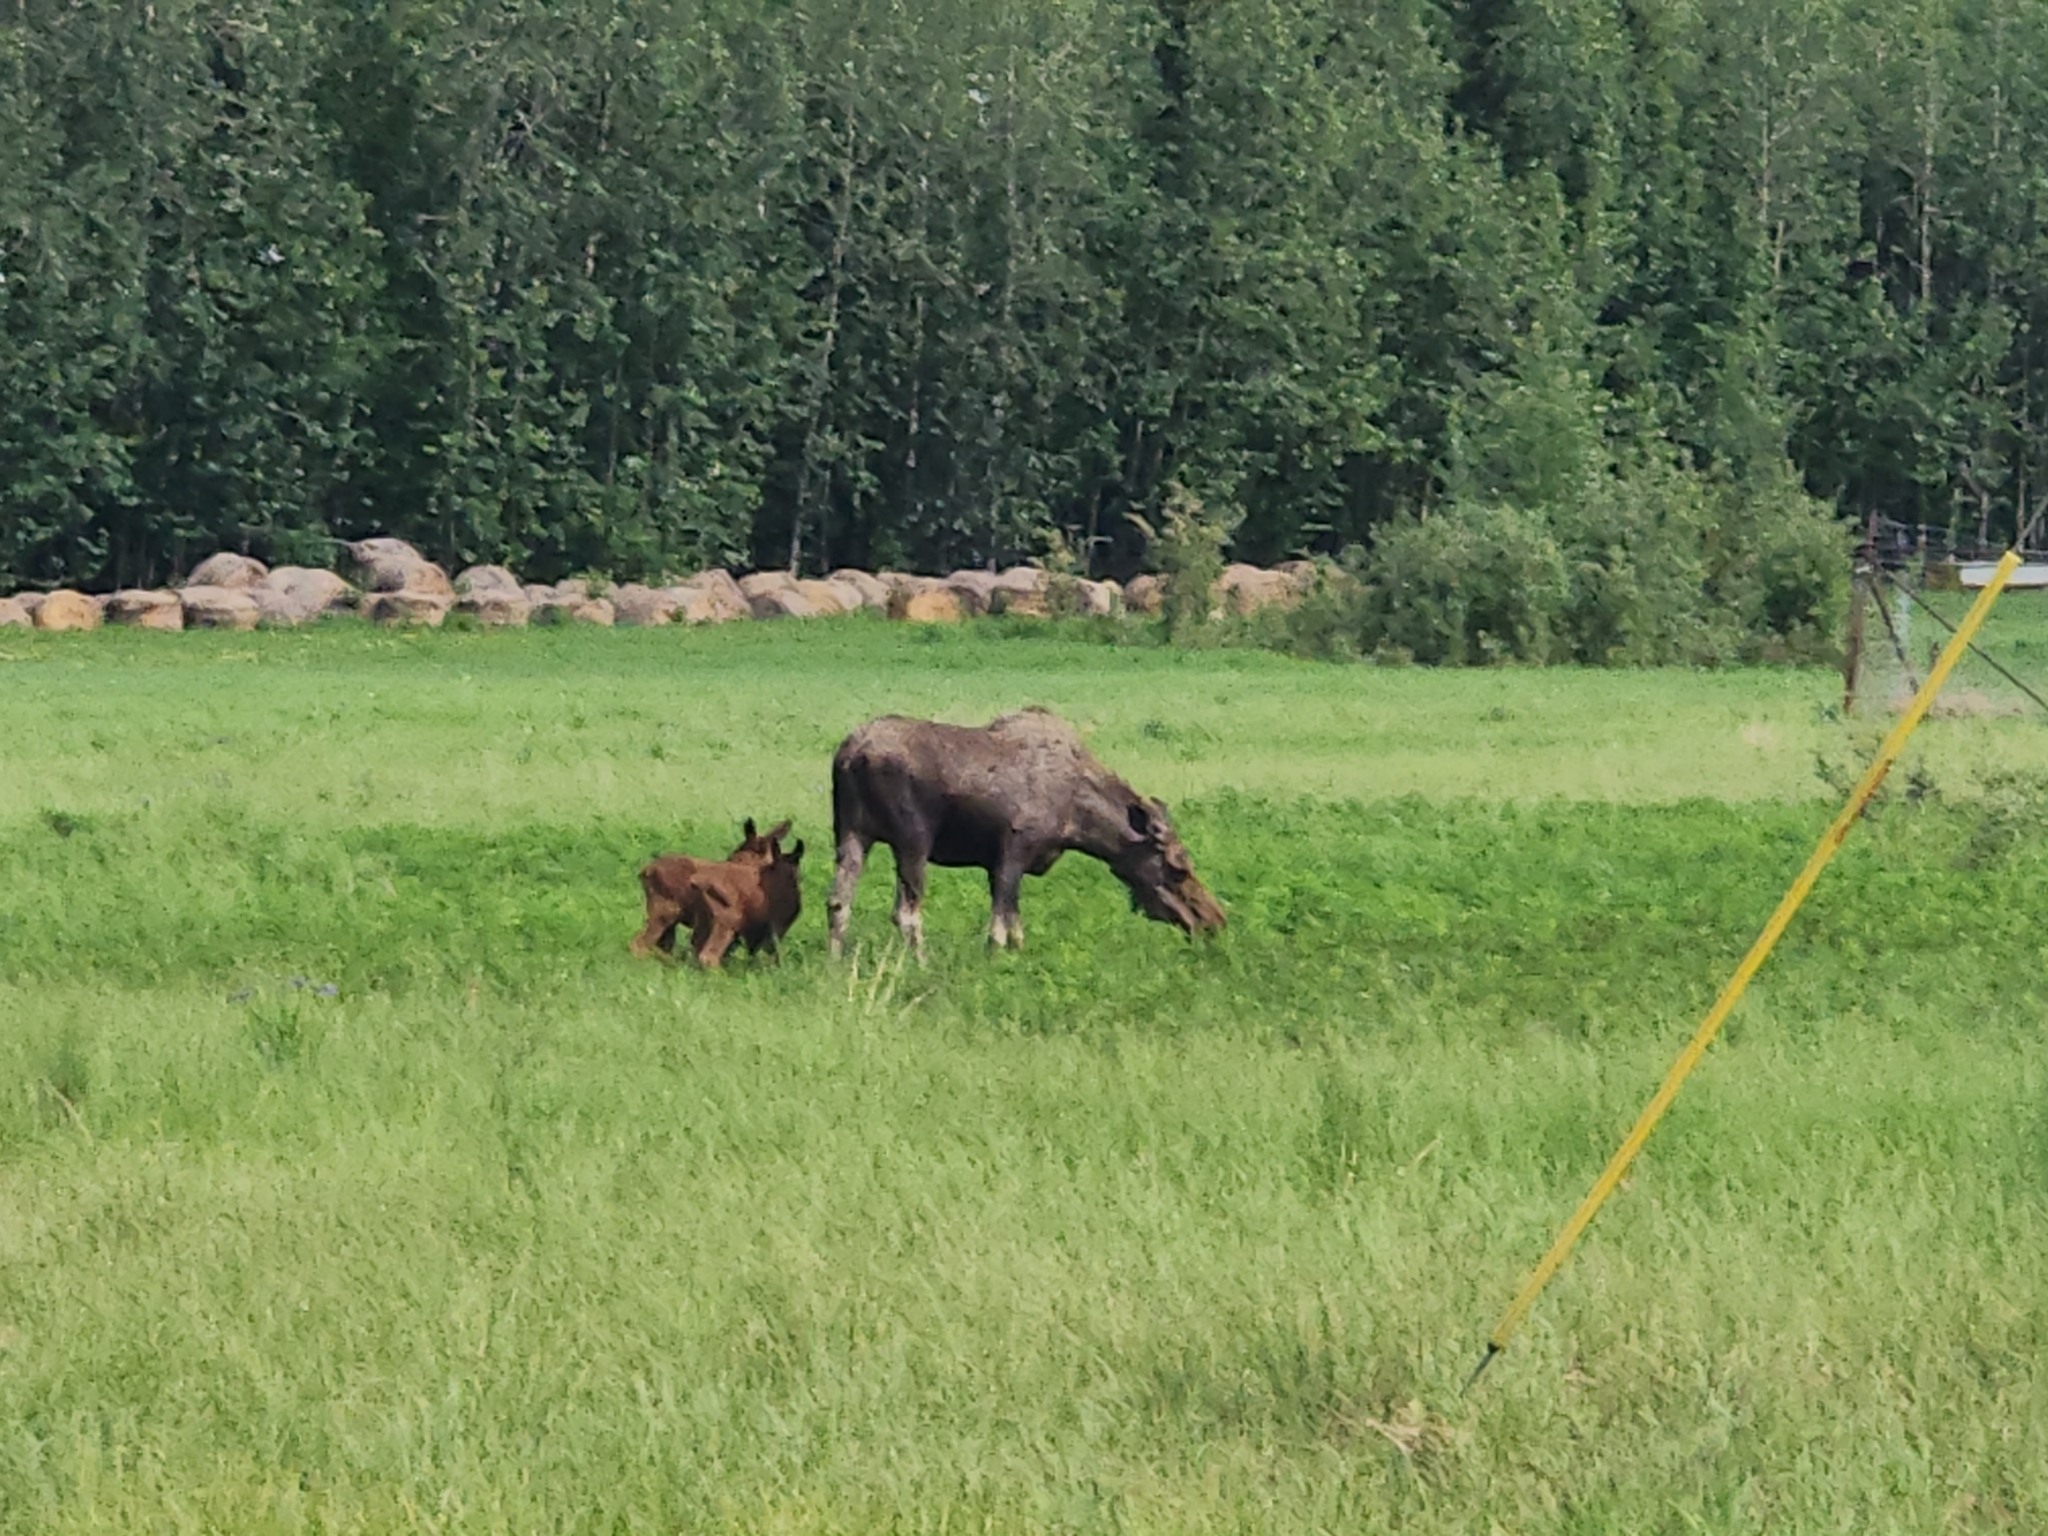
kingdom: Animalia
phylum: Chordata
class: Mammalia
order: Artiodactyla
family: Cervidae
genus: Alces
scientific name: Alces alces
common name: Moose
